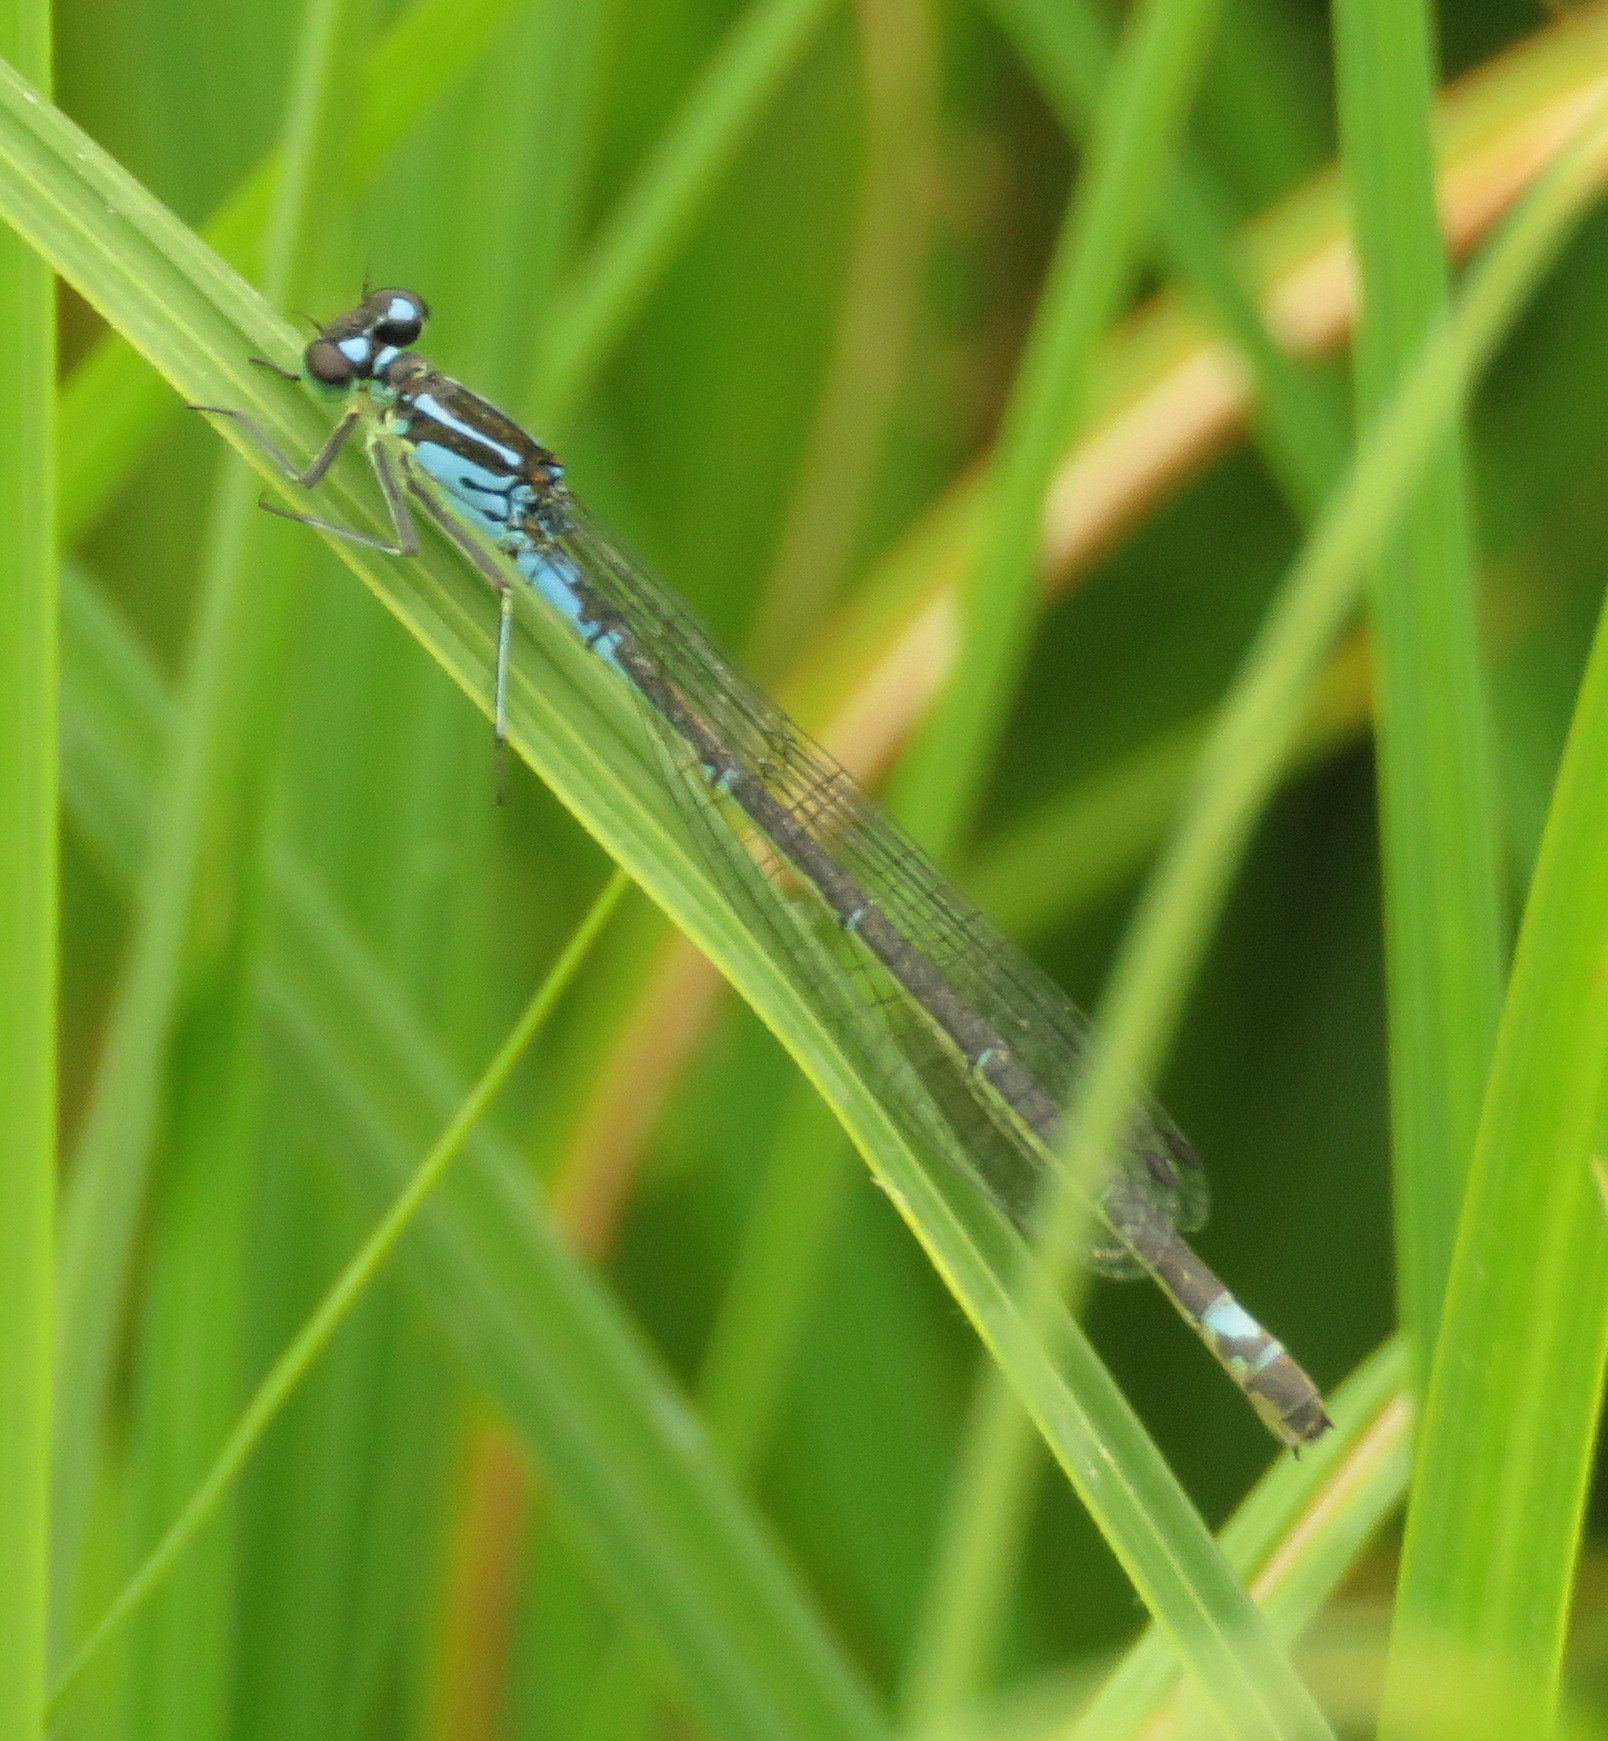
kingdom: Animalia
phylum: Arthropoda
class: Insecta
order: Odonata
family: Coenagrionidae
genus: Coenagrion
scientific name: Coenagrion pulchellum
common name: Variable bluet
